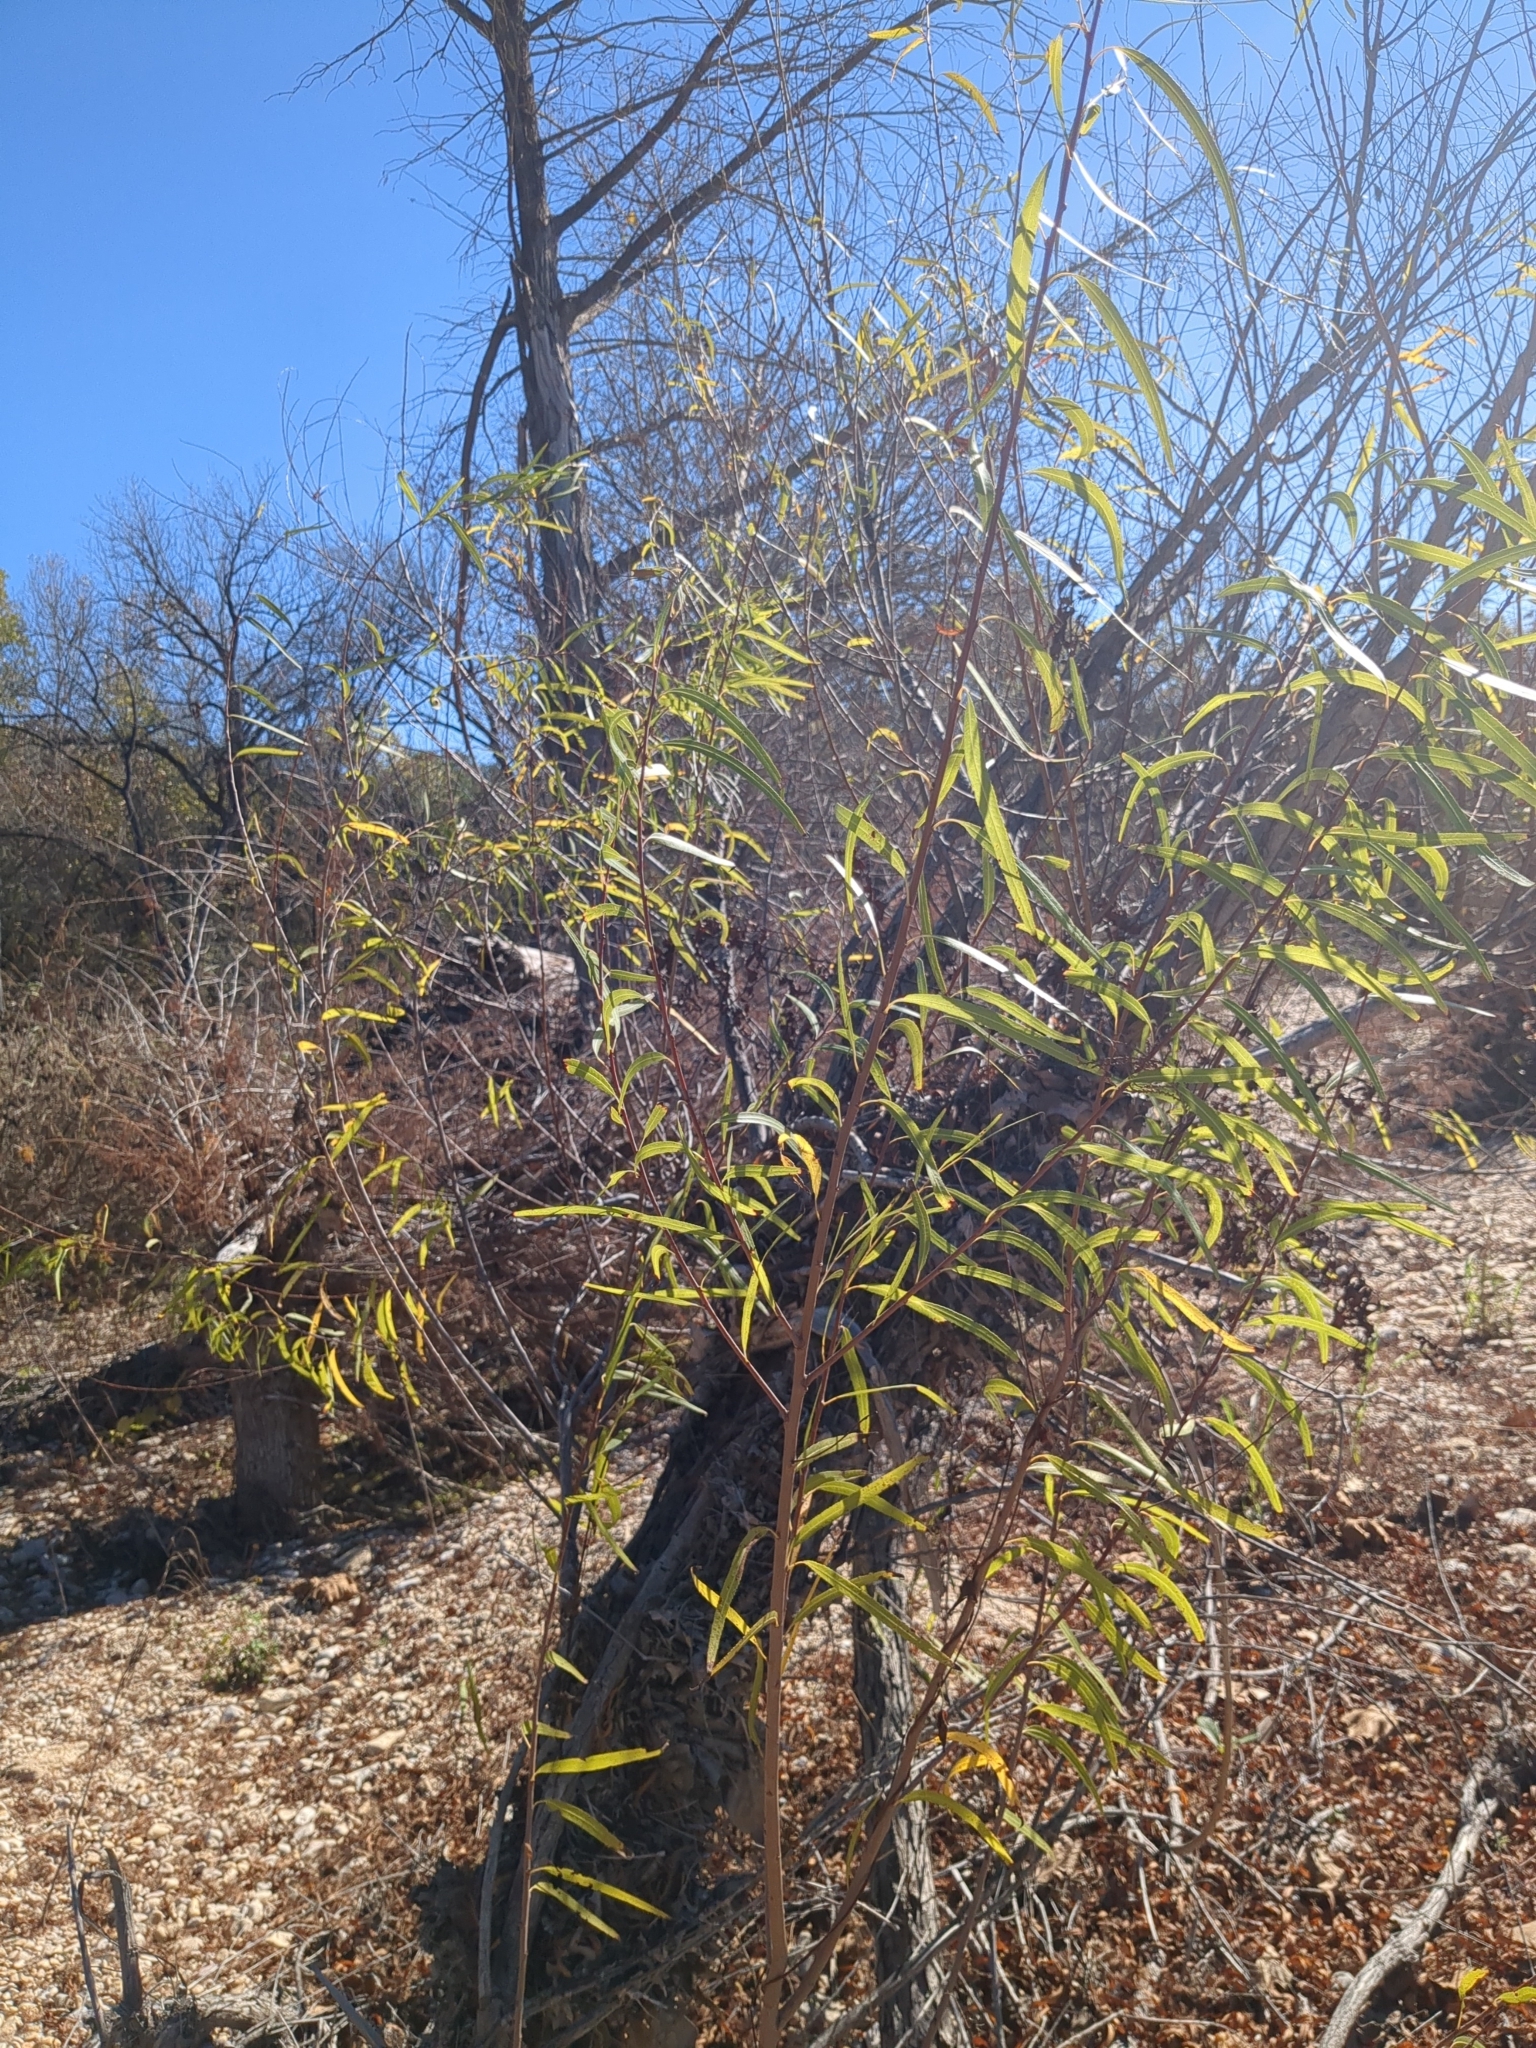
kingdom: Plantae
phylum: Tracheophyta
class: Magnoliopsida
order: Malpighiales
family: Salicaceae
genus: Salix
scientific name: Salix nigra
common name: Black willow
